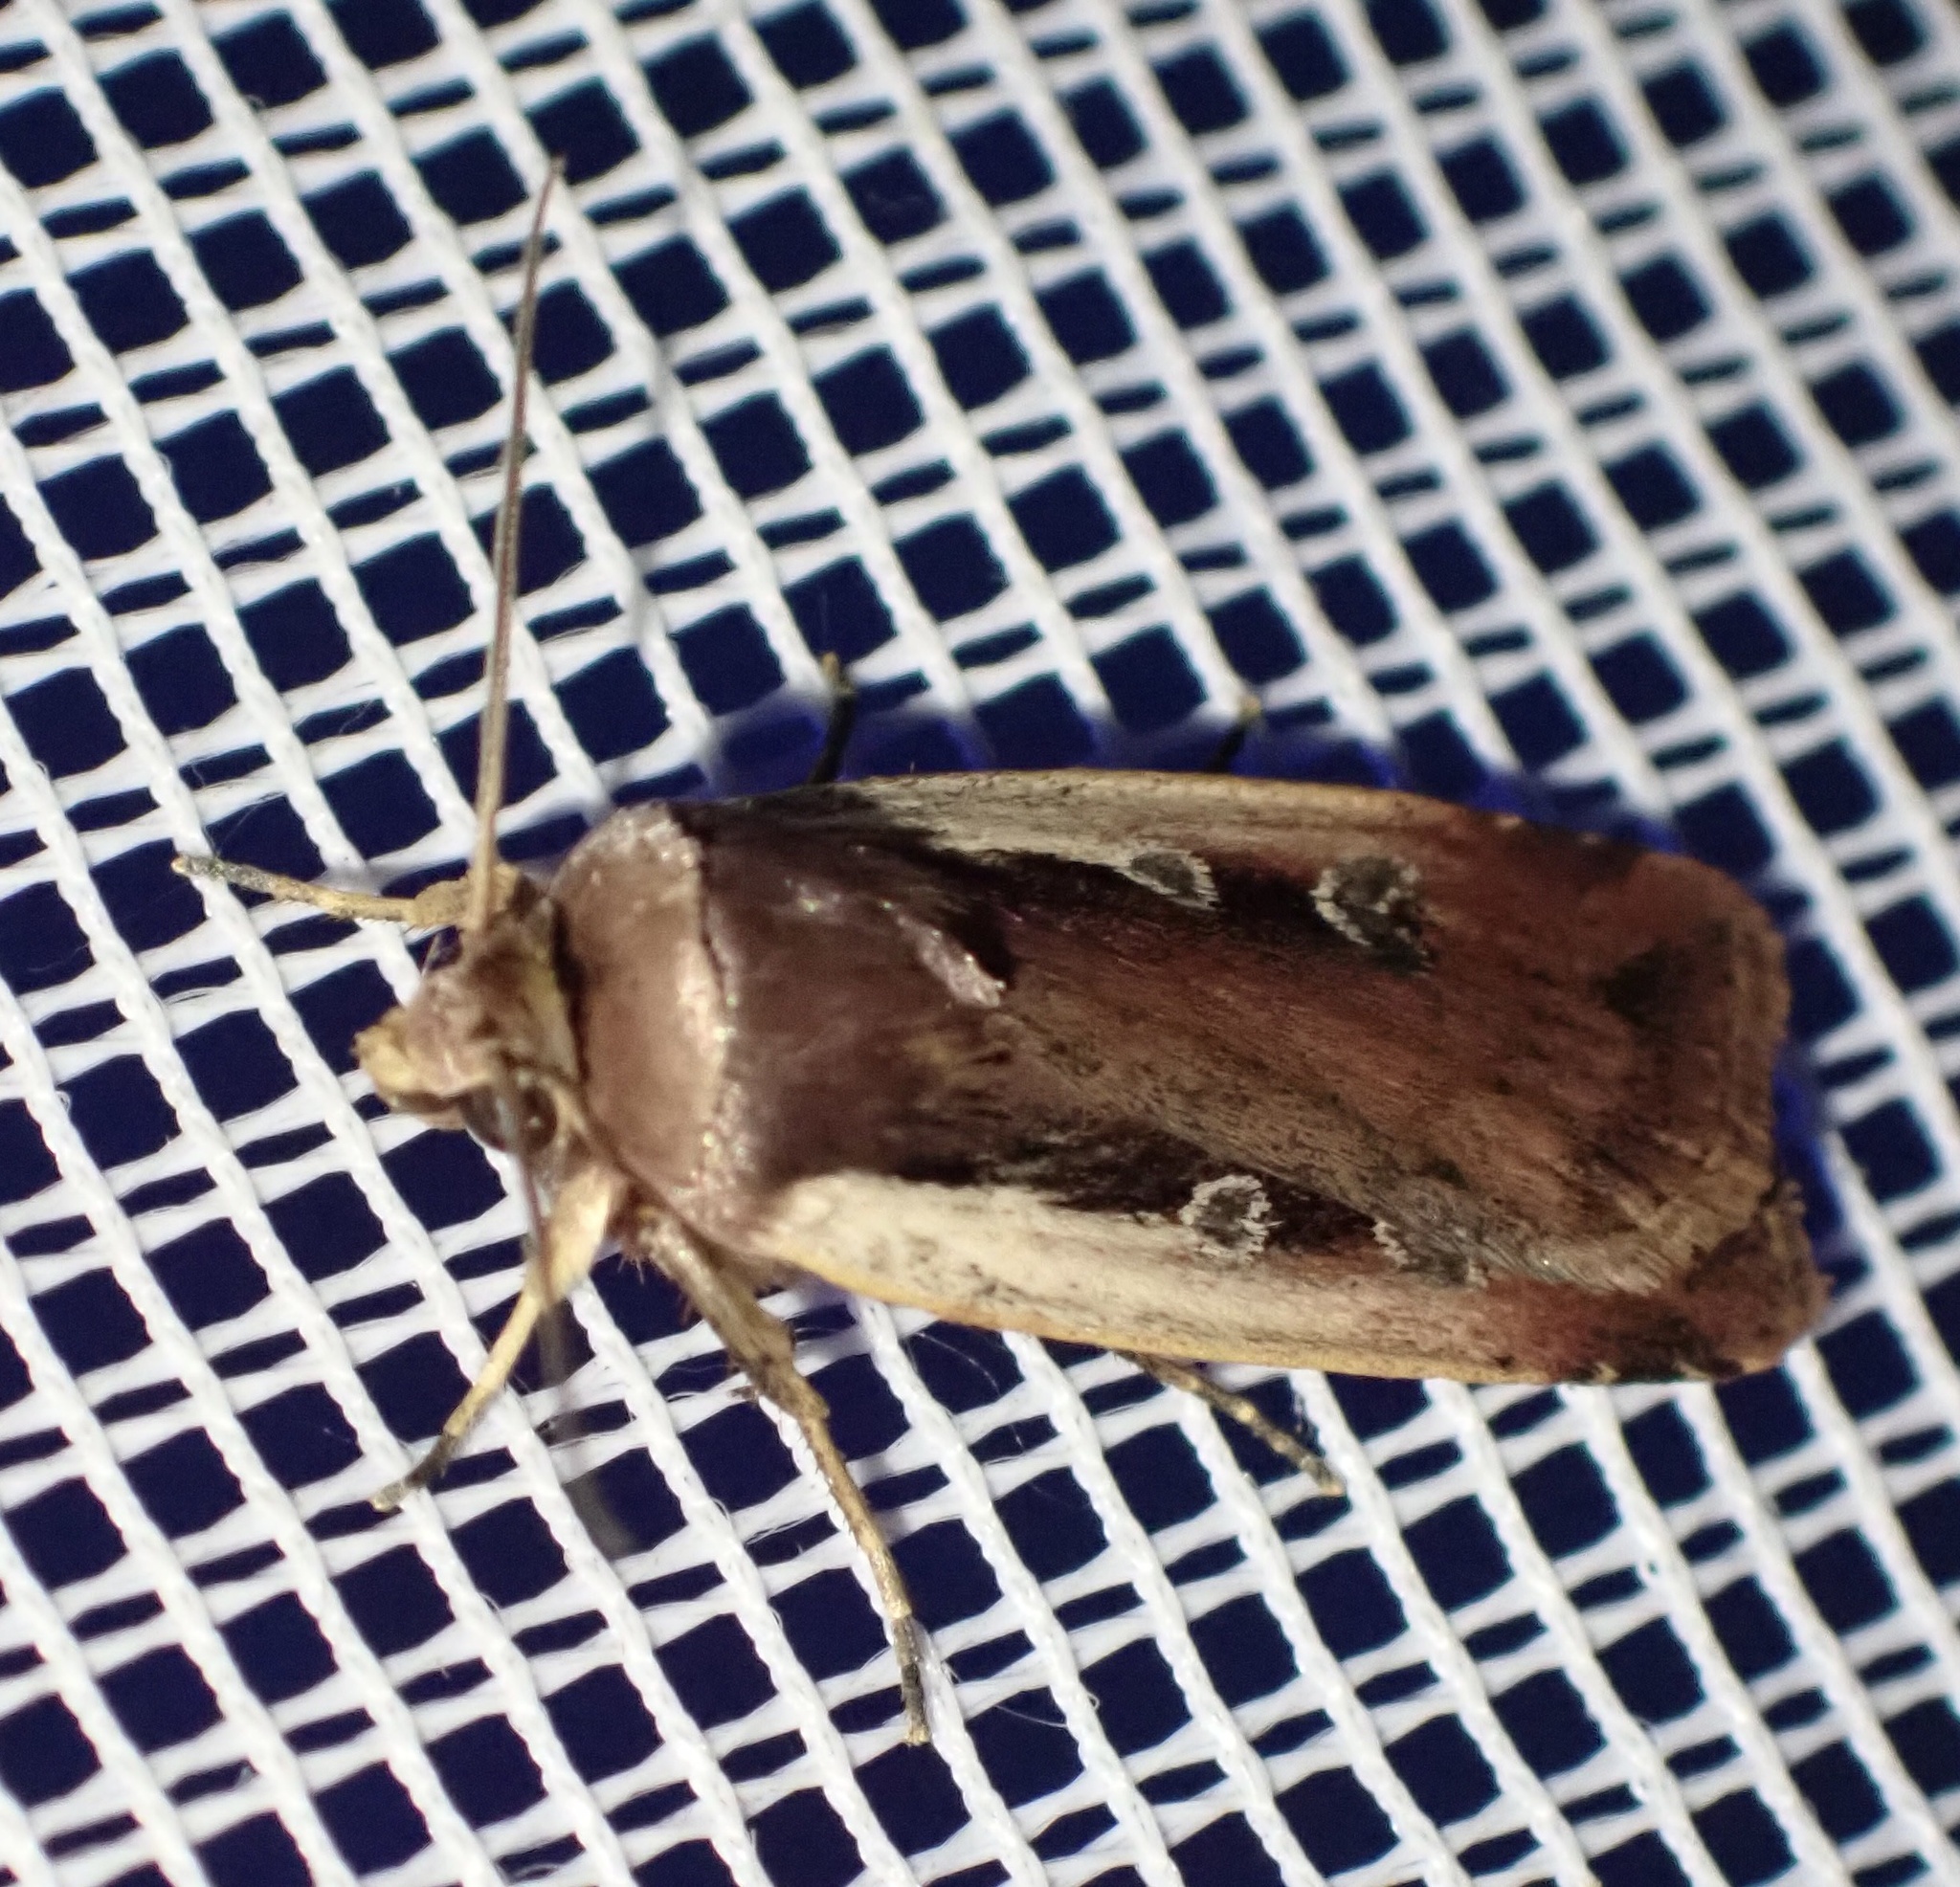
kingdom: Animalia
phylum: Arthropoda
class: Insecta
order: Lepidoptera
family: Noctuidae
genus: Ochropleura
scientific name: Ochropleura plecta
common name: Flame shoulder
